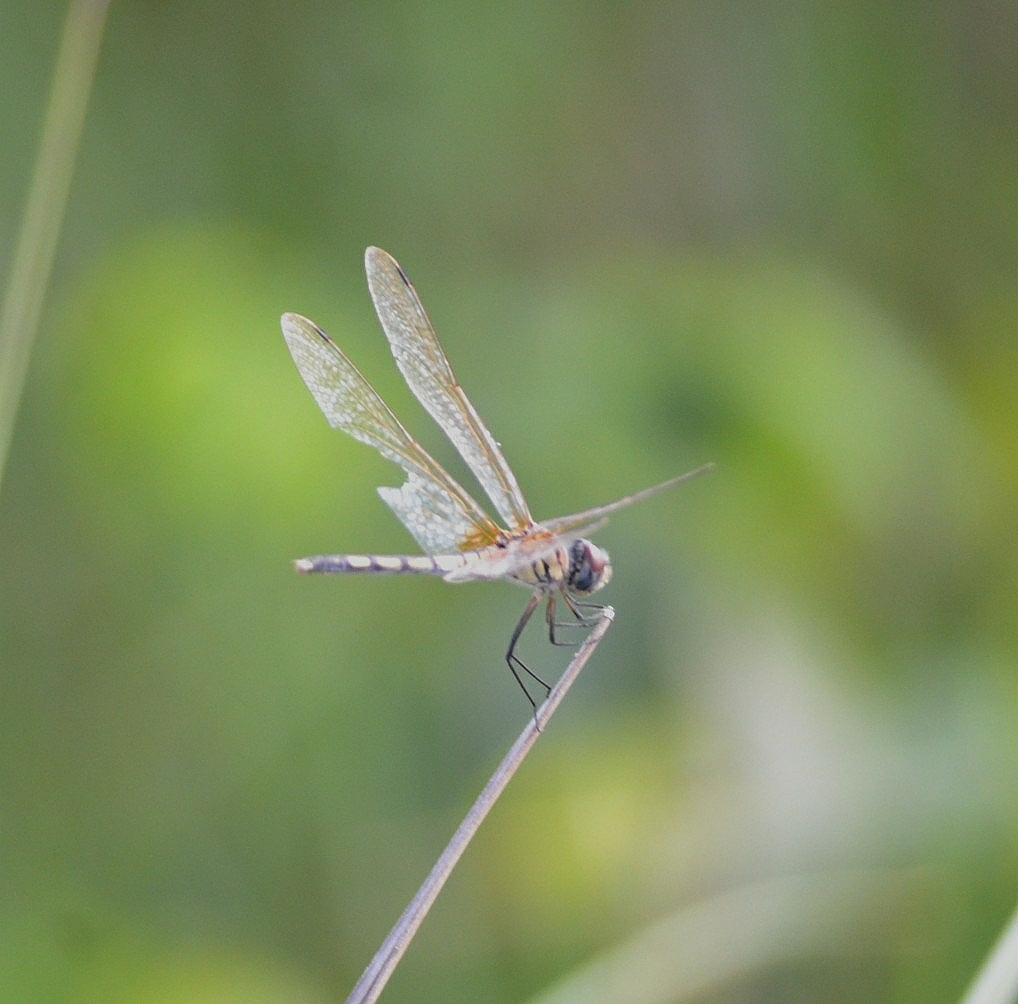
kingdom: Animalia
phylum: Arthropoda
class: Insecta
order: Odonata
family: Libellulidae
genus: Trithemis
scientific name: Trithemis pallidinervis
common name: Dancing dropwing
